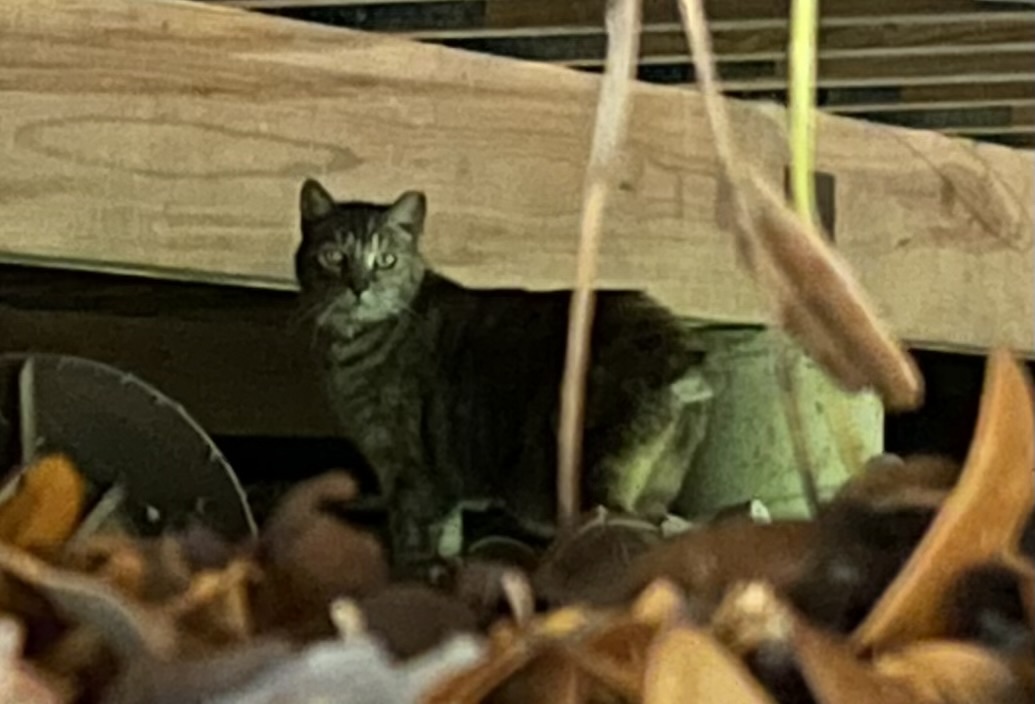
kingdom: Animalia
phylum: Chordata
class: Mammalia
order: Carnivora
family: Felidae
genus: Felis
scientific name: Felis catus
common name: Domestic cat
